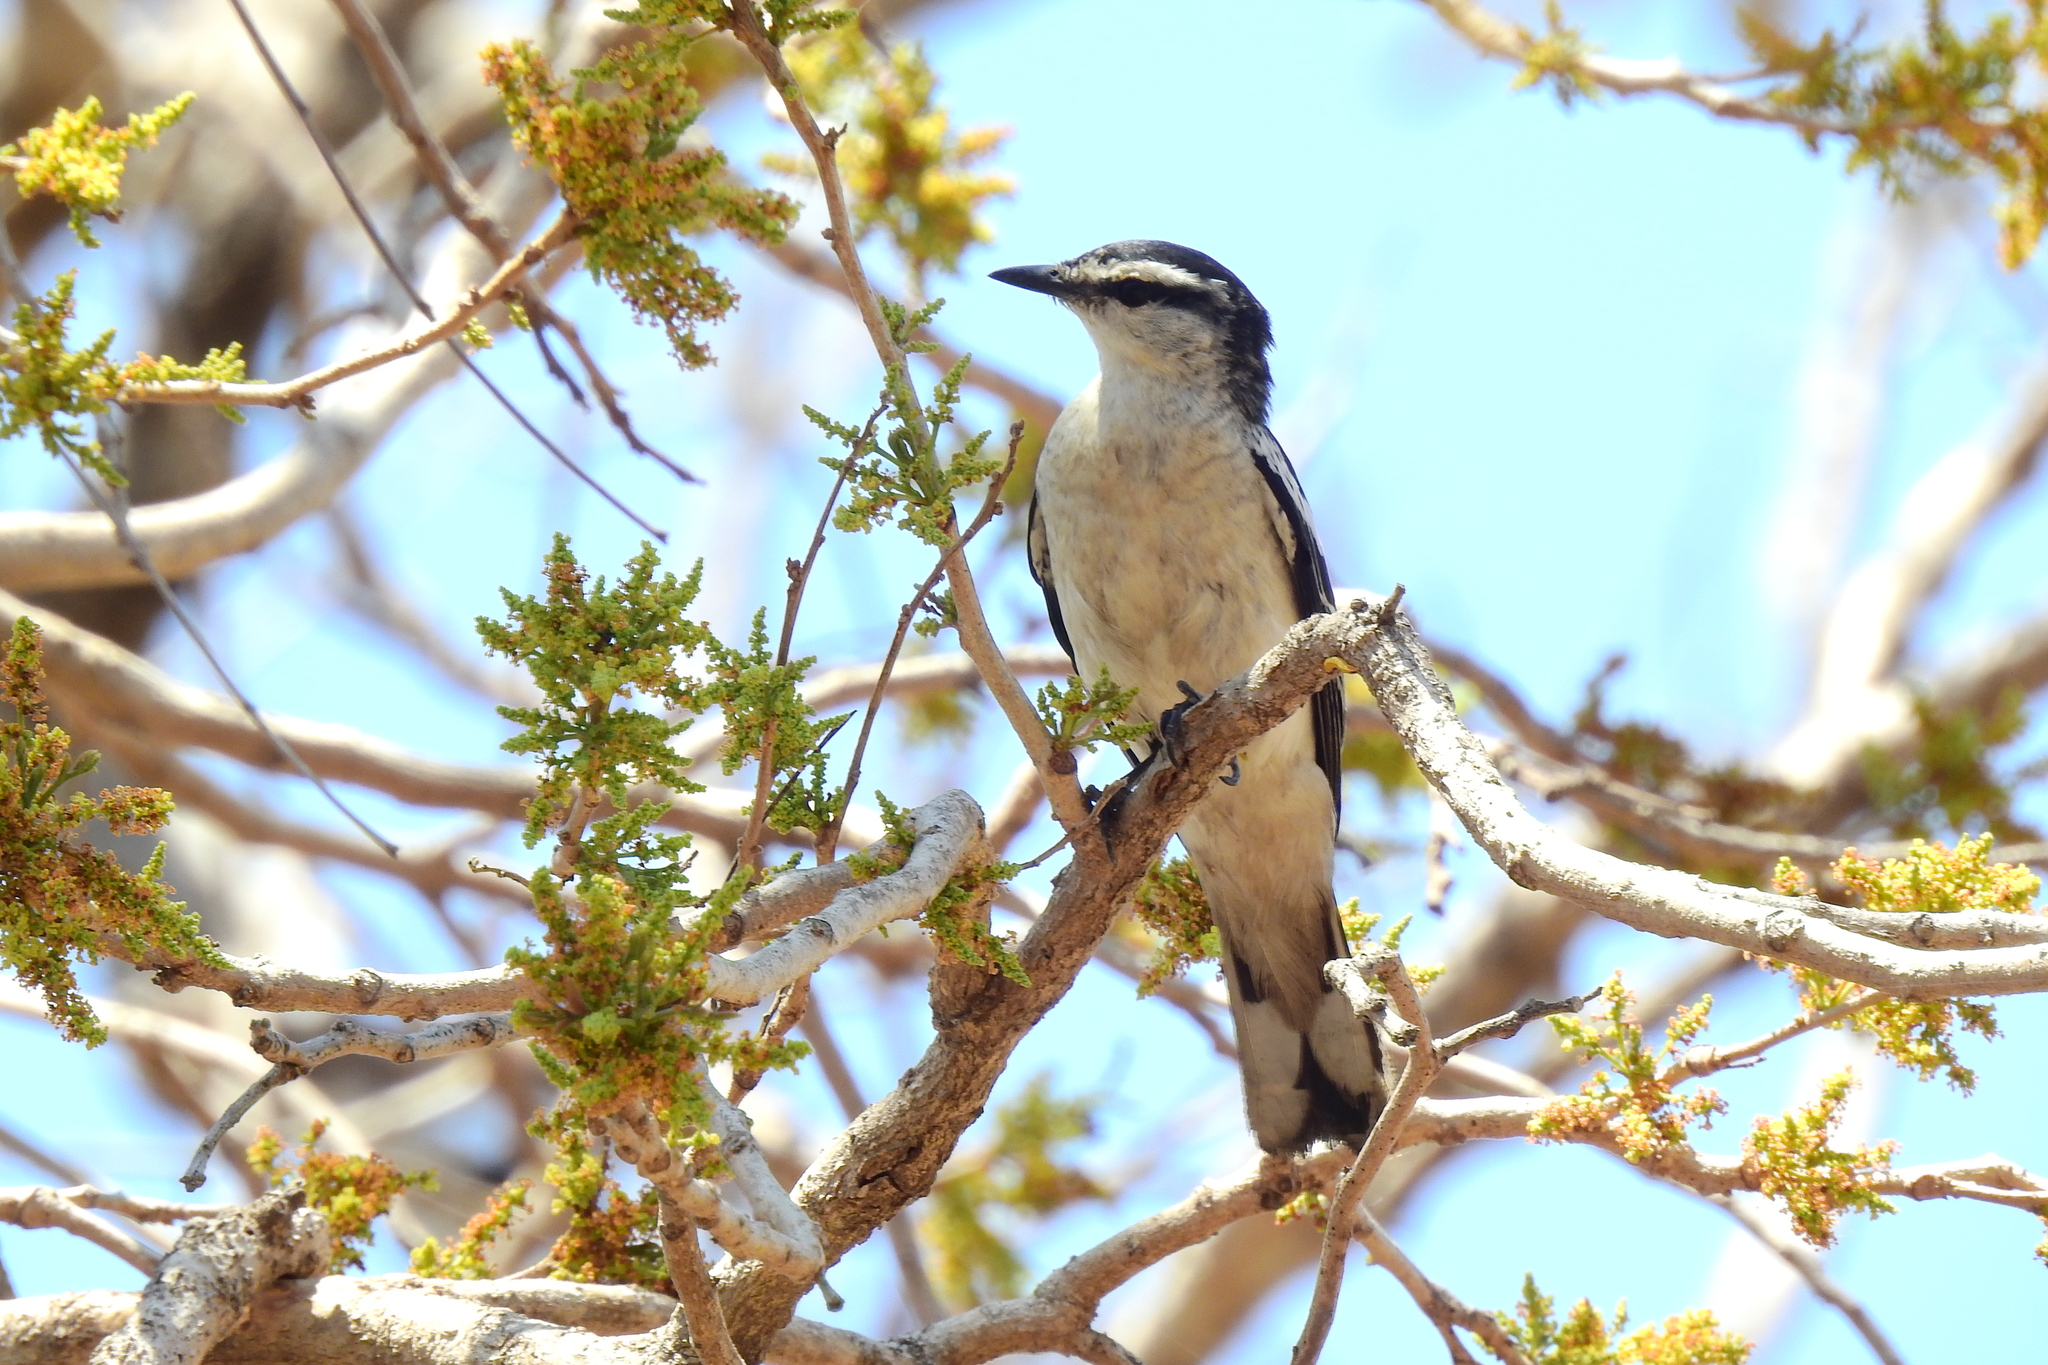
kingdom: Animalia
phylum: Chordata
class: Aves
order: Passeriformes
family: Campephagidae
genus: Lalage
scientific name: Lalage sueurii
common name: White-shouldered triller
